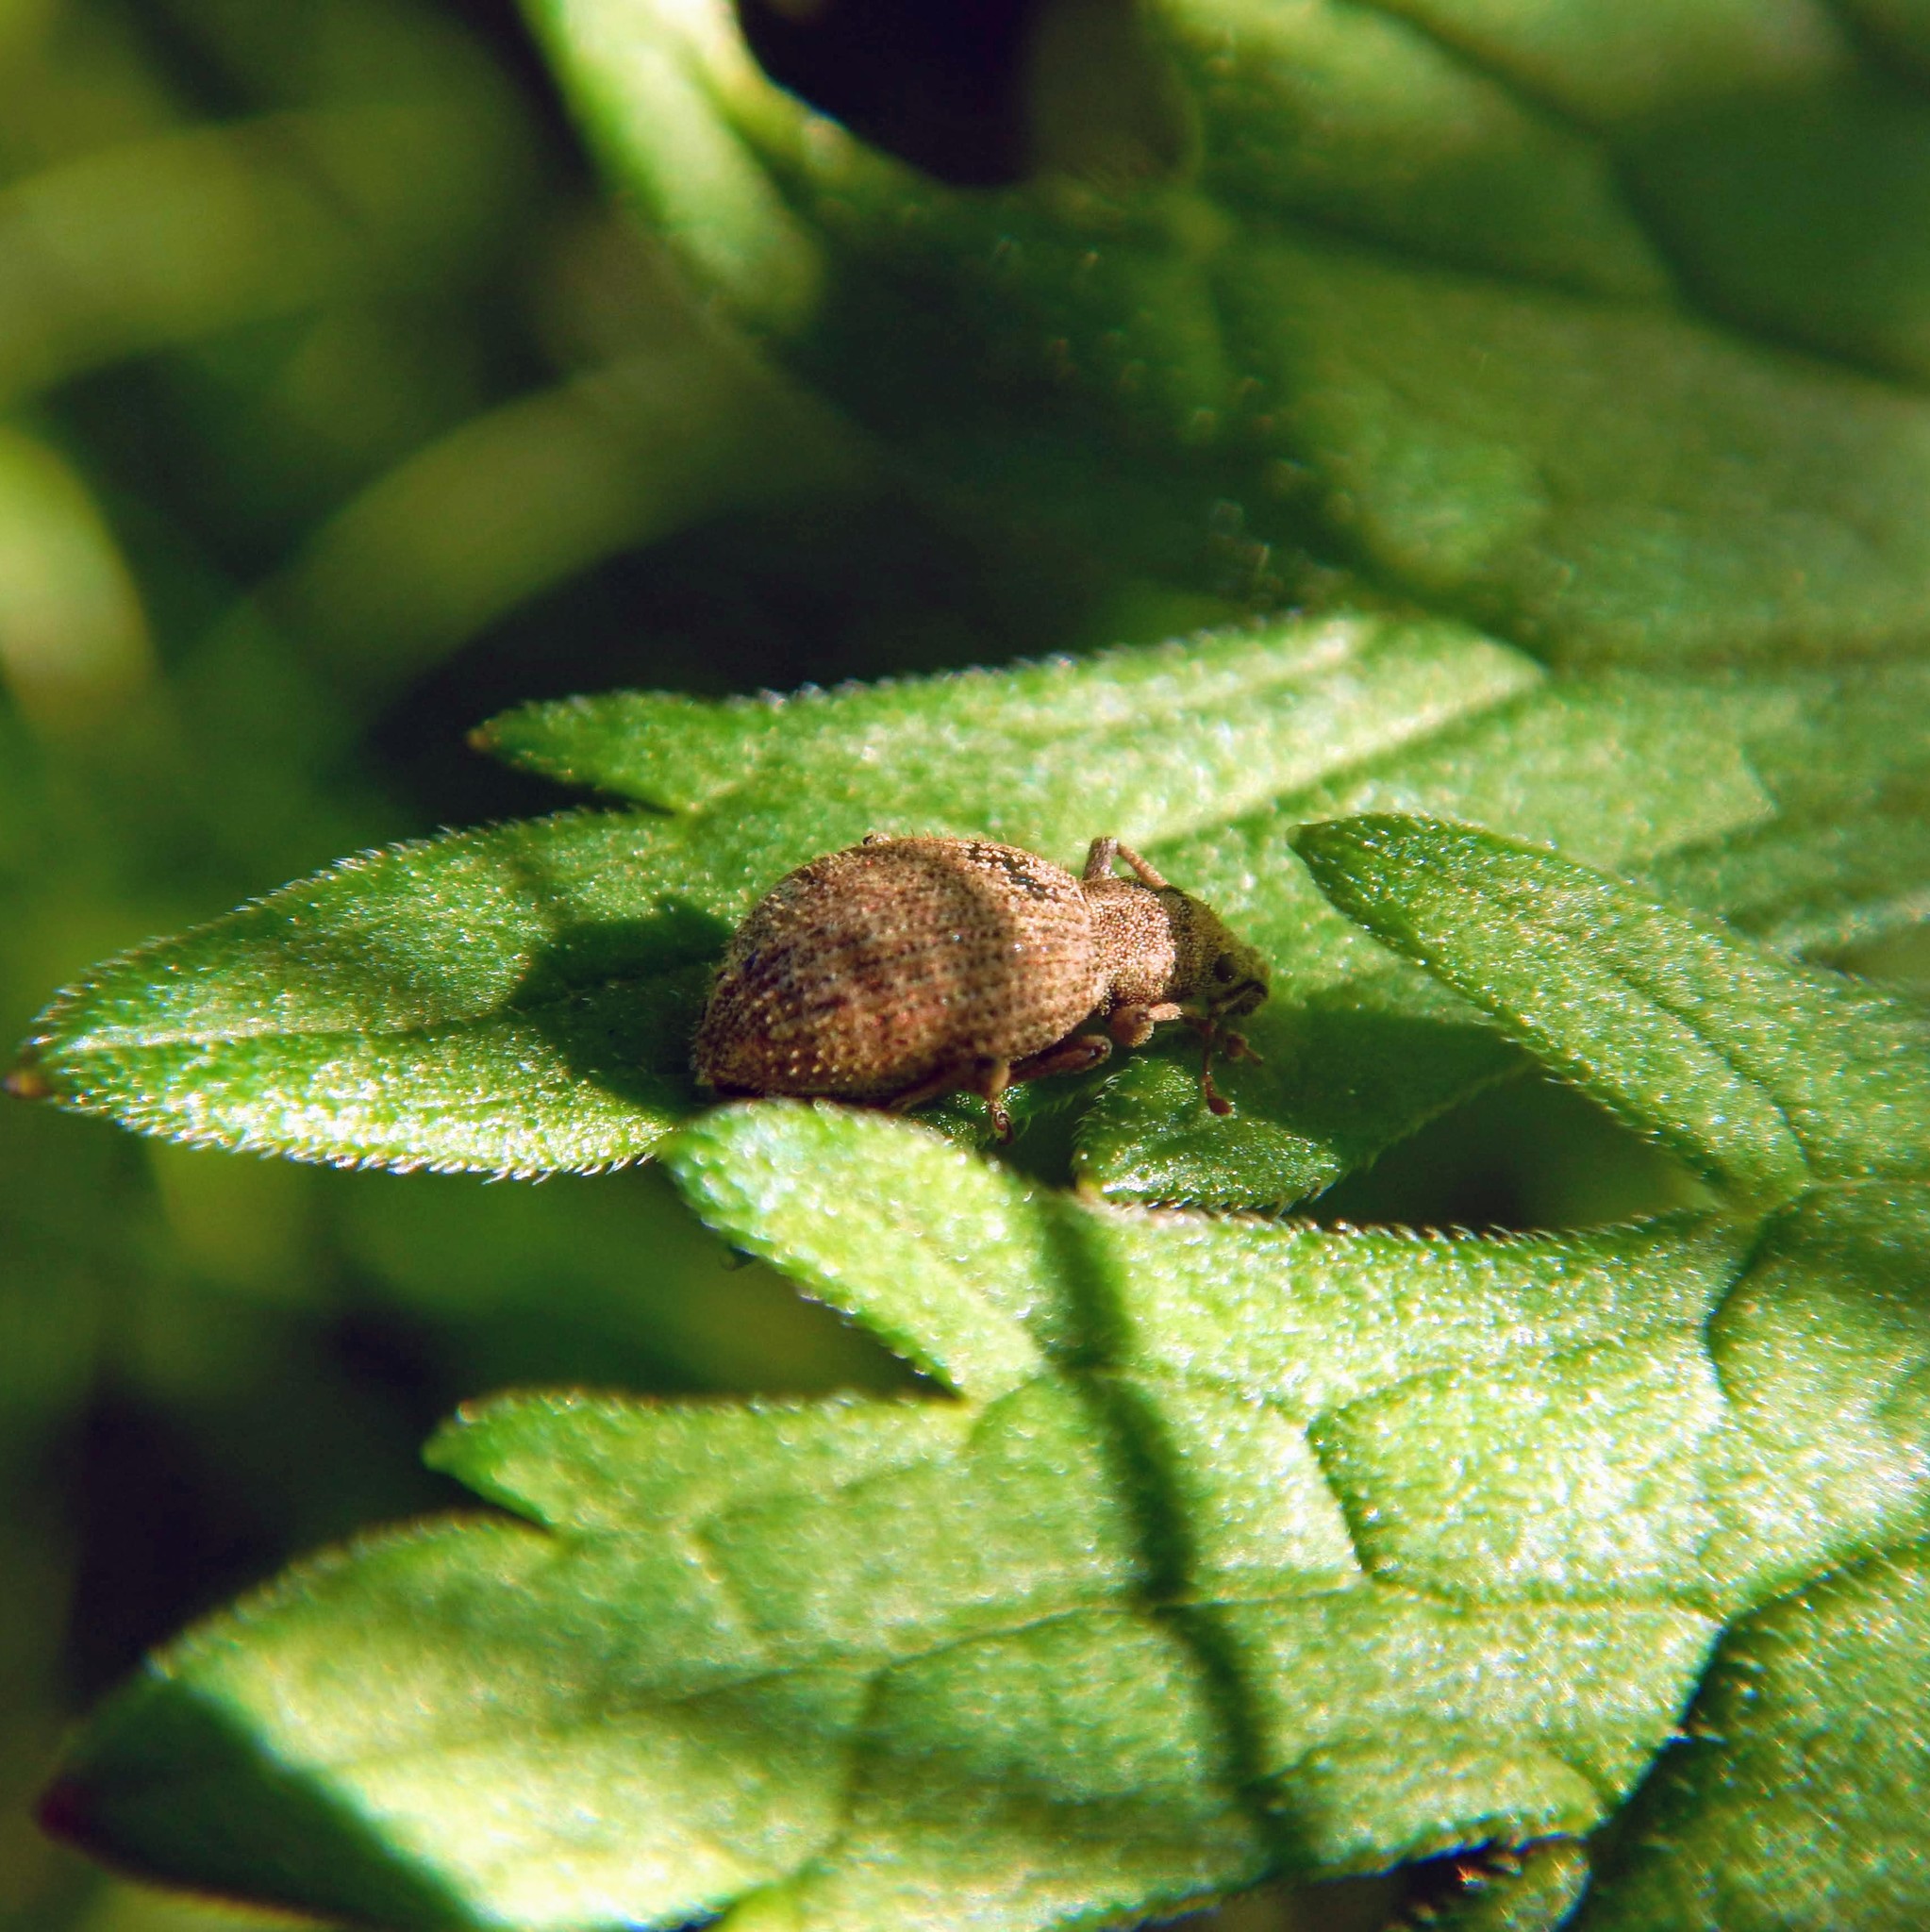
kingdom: Animalia
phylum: Arthropoda
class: Insecta
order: Coleoptera
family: Curculionidae
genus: Sciaphilus
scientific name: Sciaphilus asperatus
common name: Weevil
